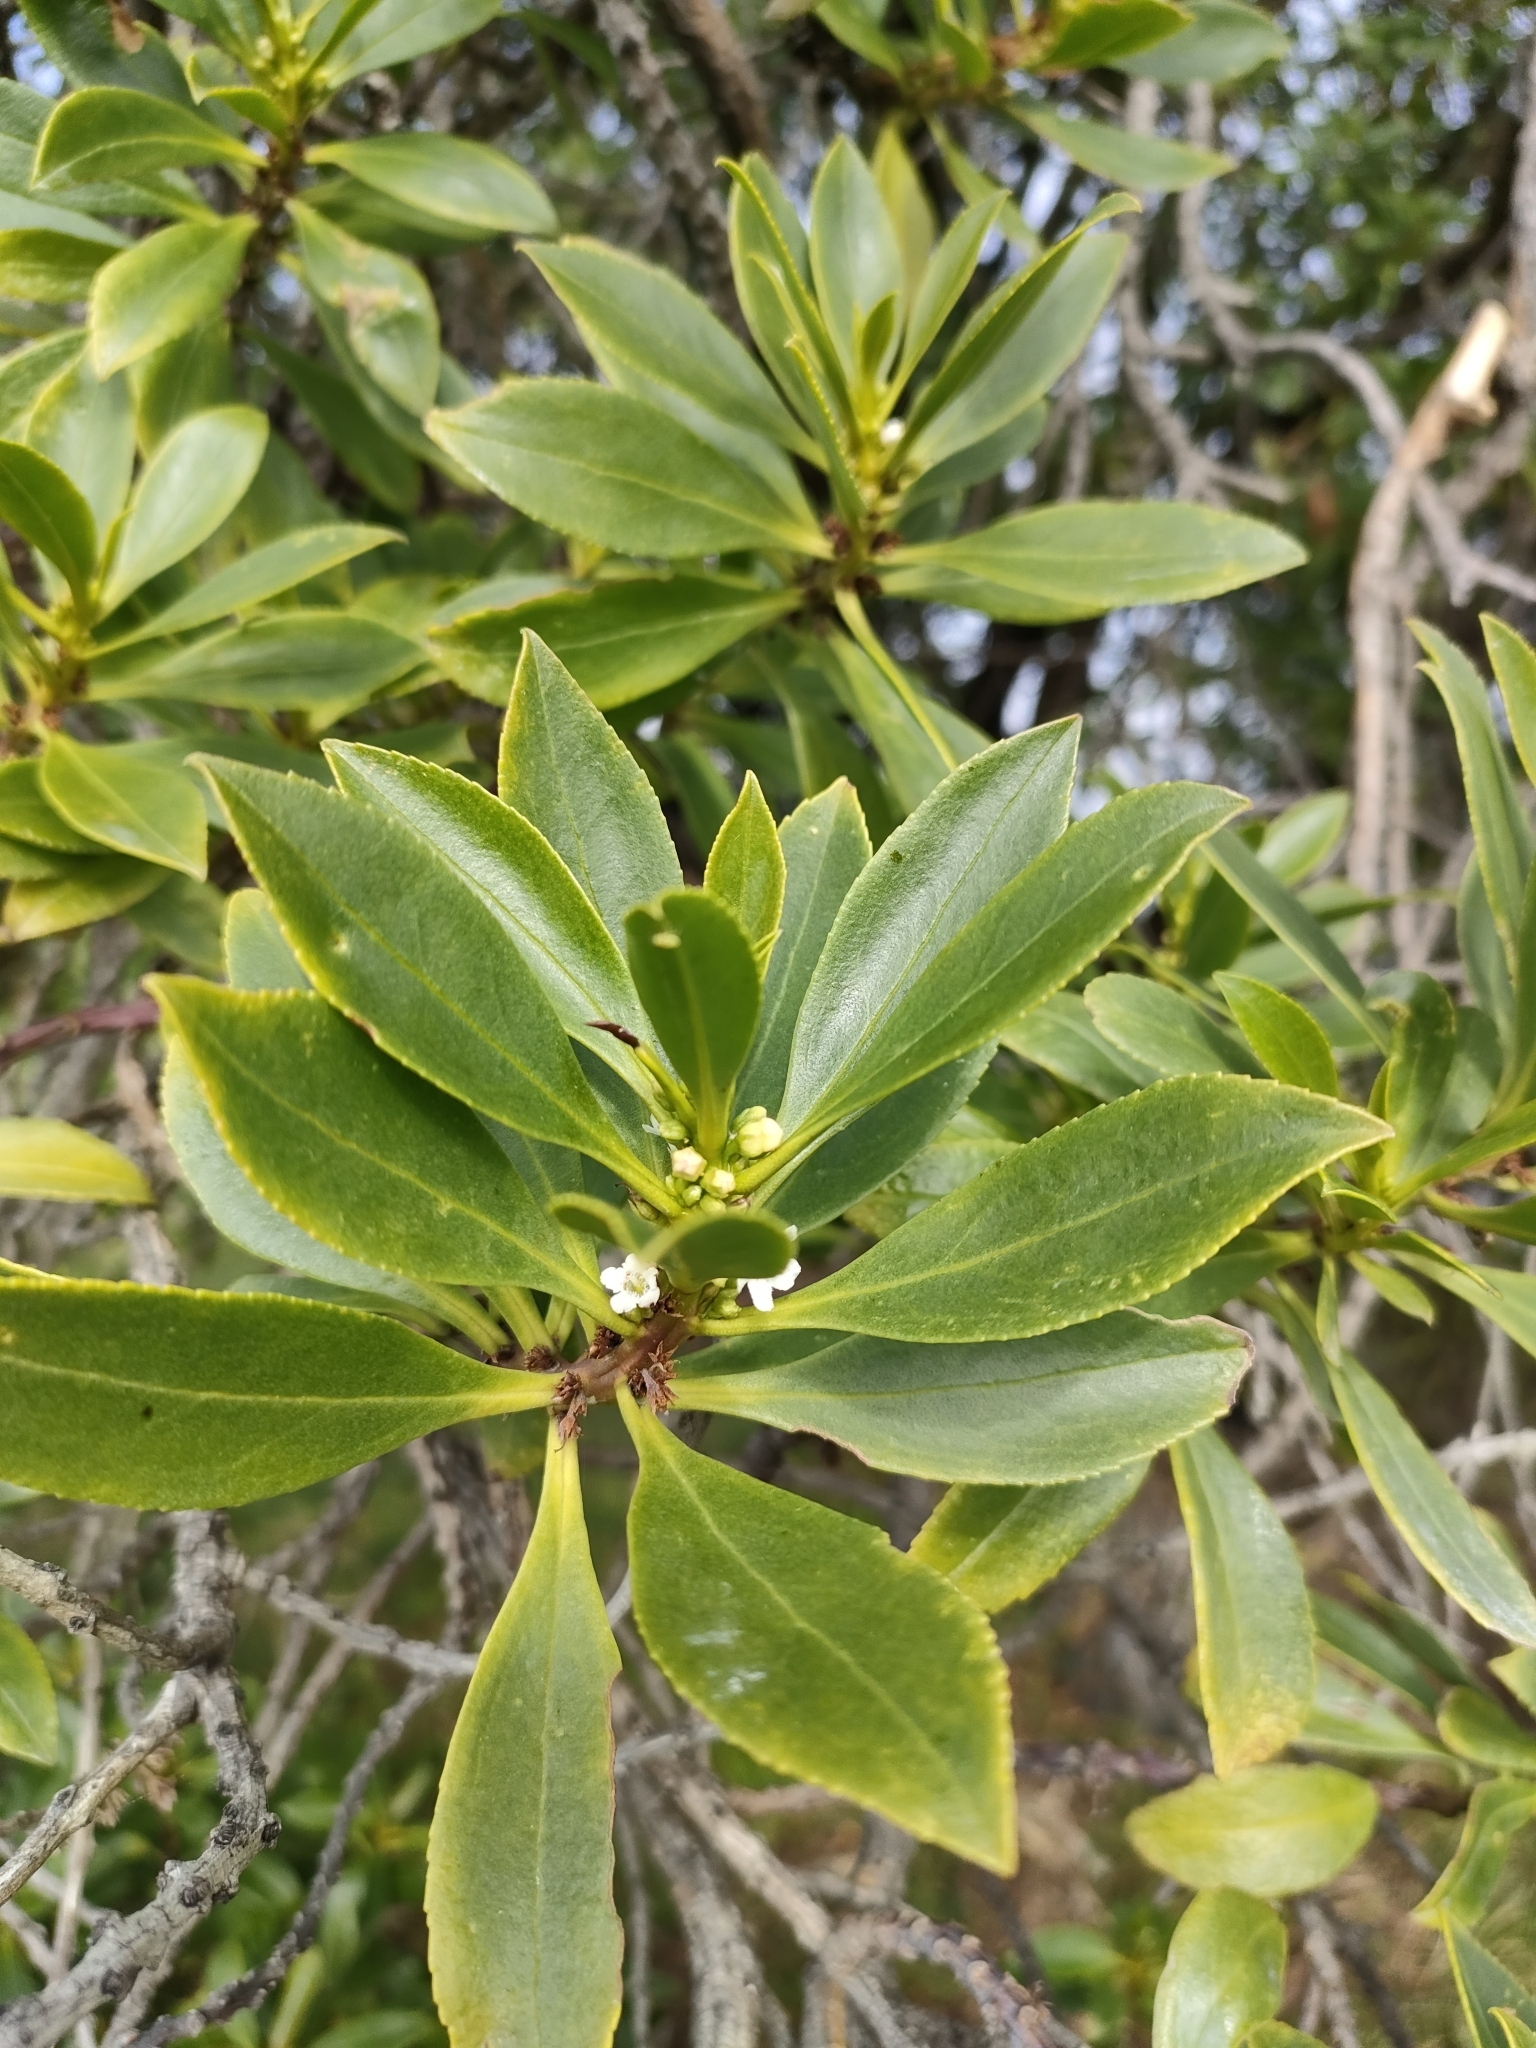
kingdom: Plantae
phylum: Tracheophyta
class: Magnoliopsida
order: Lamiales
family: Scrophulariaceae
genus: Myoporum
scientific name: Myoporum insulare
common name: Common boobialla
